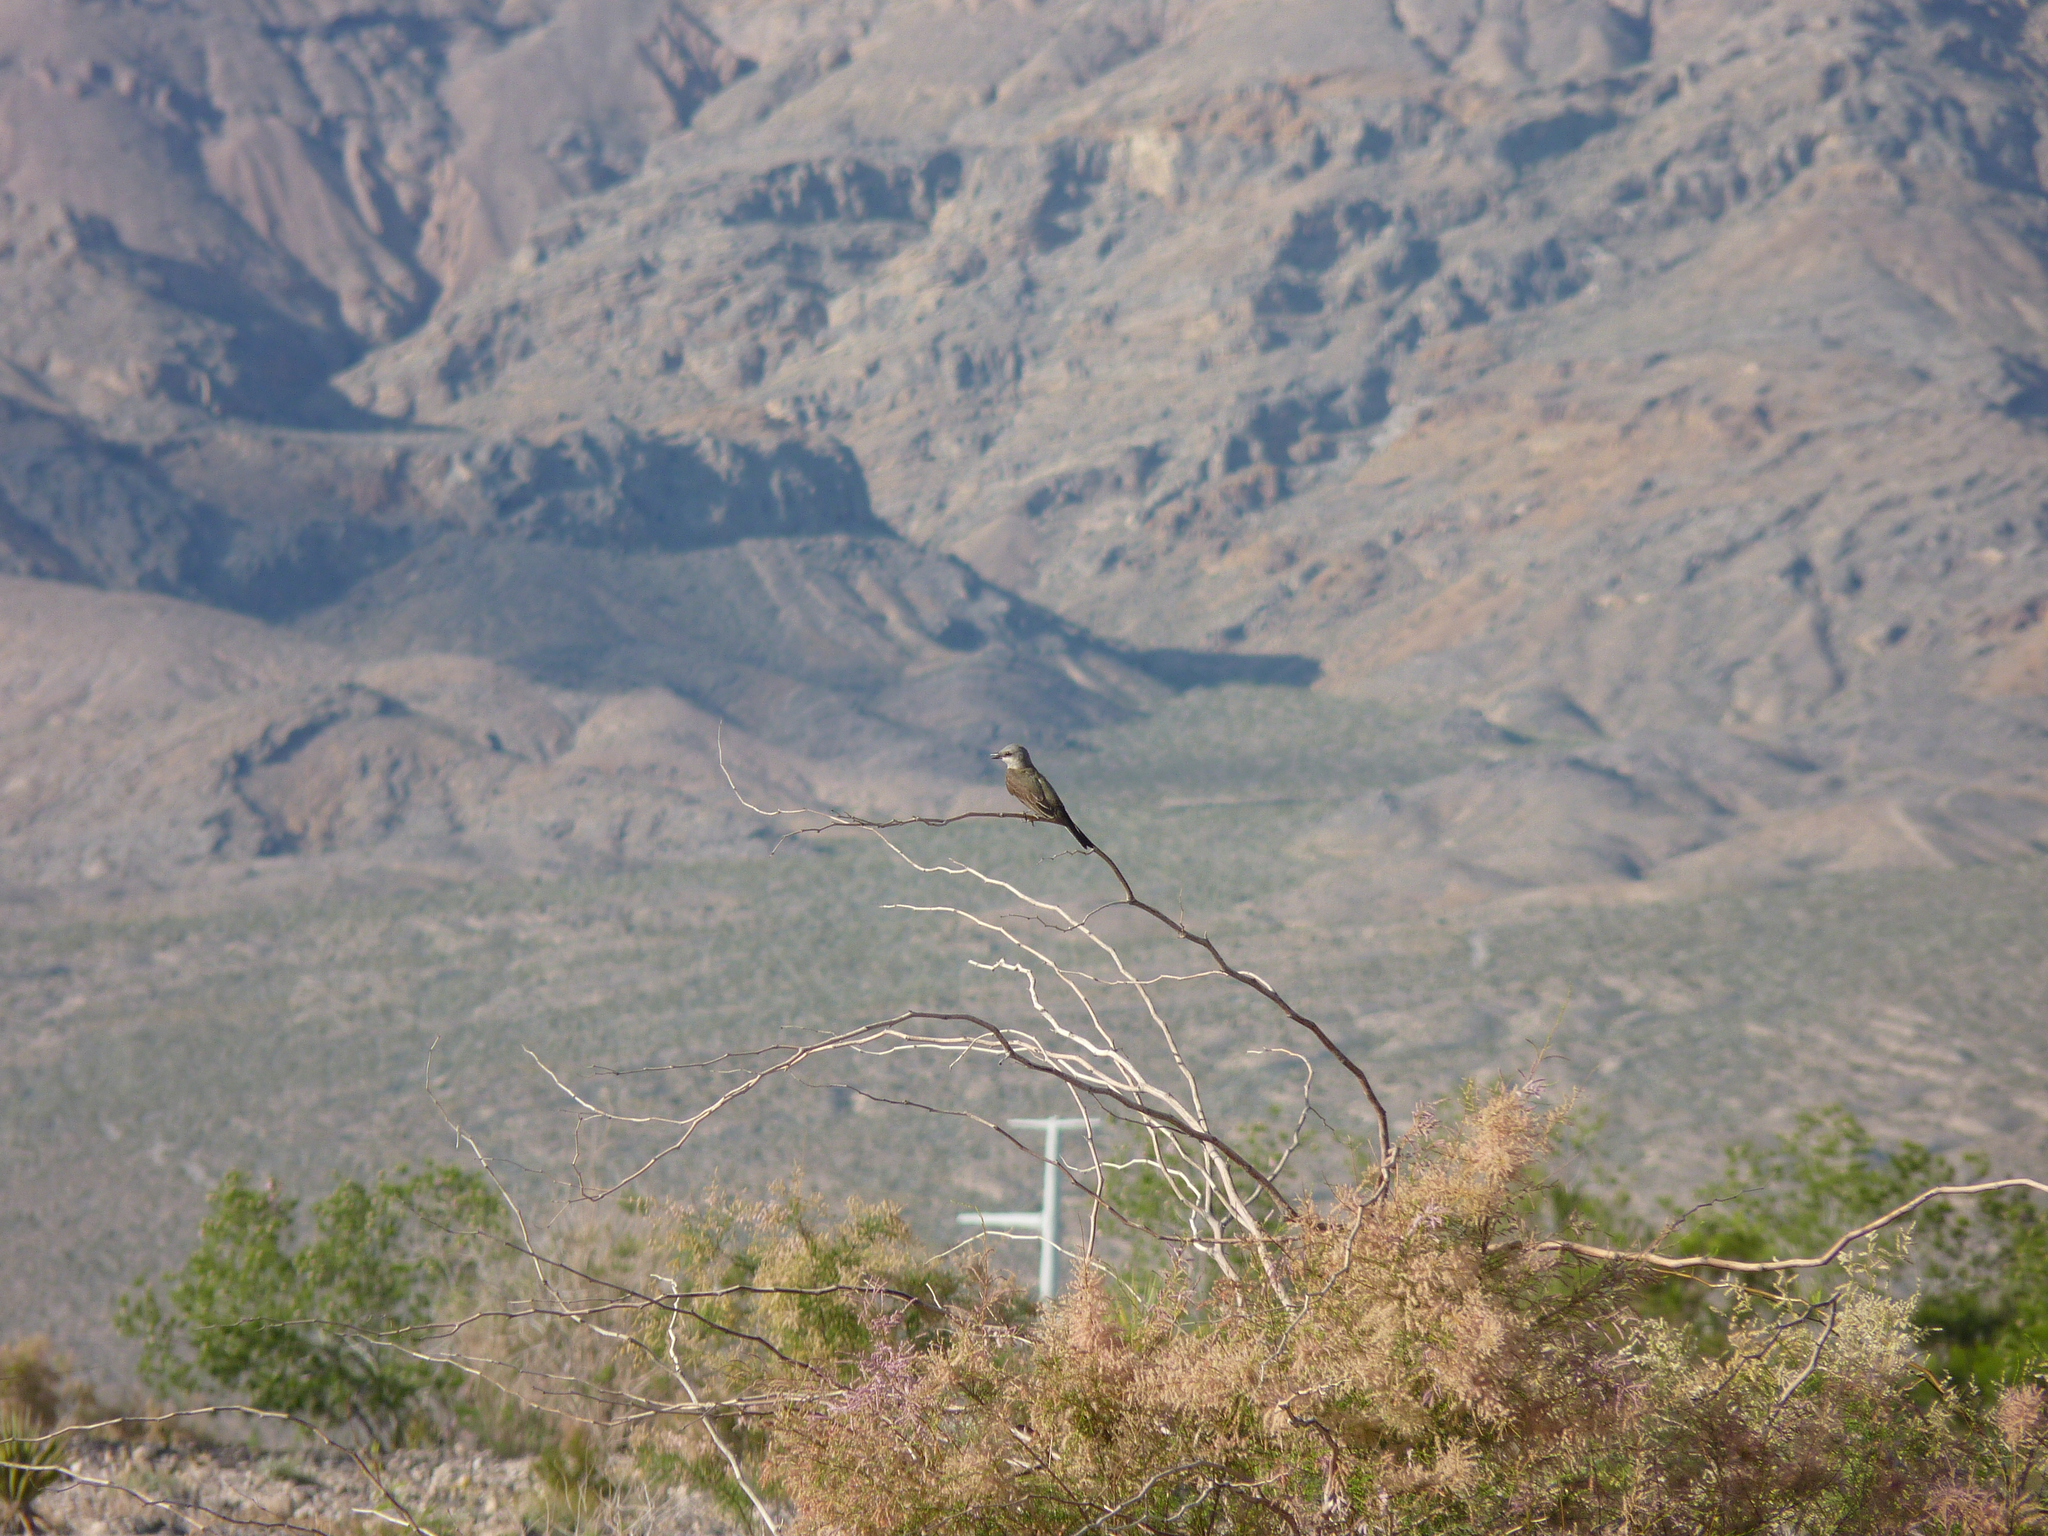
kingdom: Animalia
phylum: Chordata
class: Aves
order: Passeriformes
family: Tyrannidae
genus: Tyrannus
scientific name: Tyrannus verticalis
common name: Western kingbird
